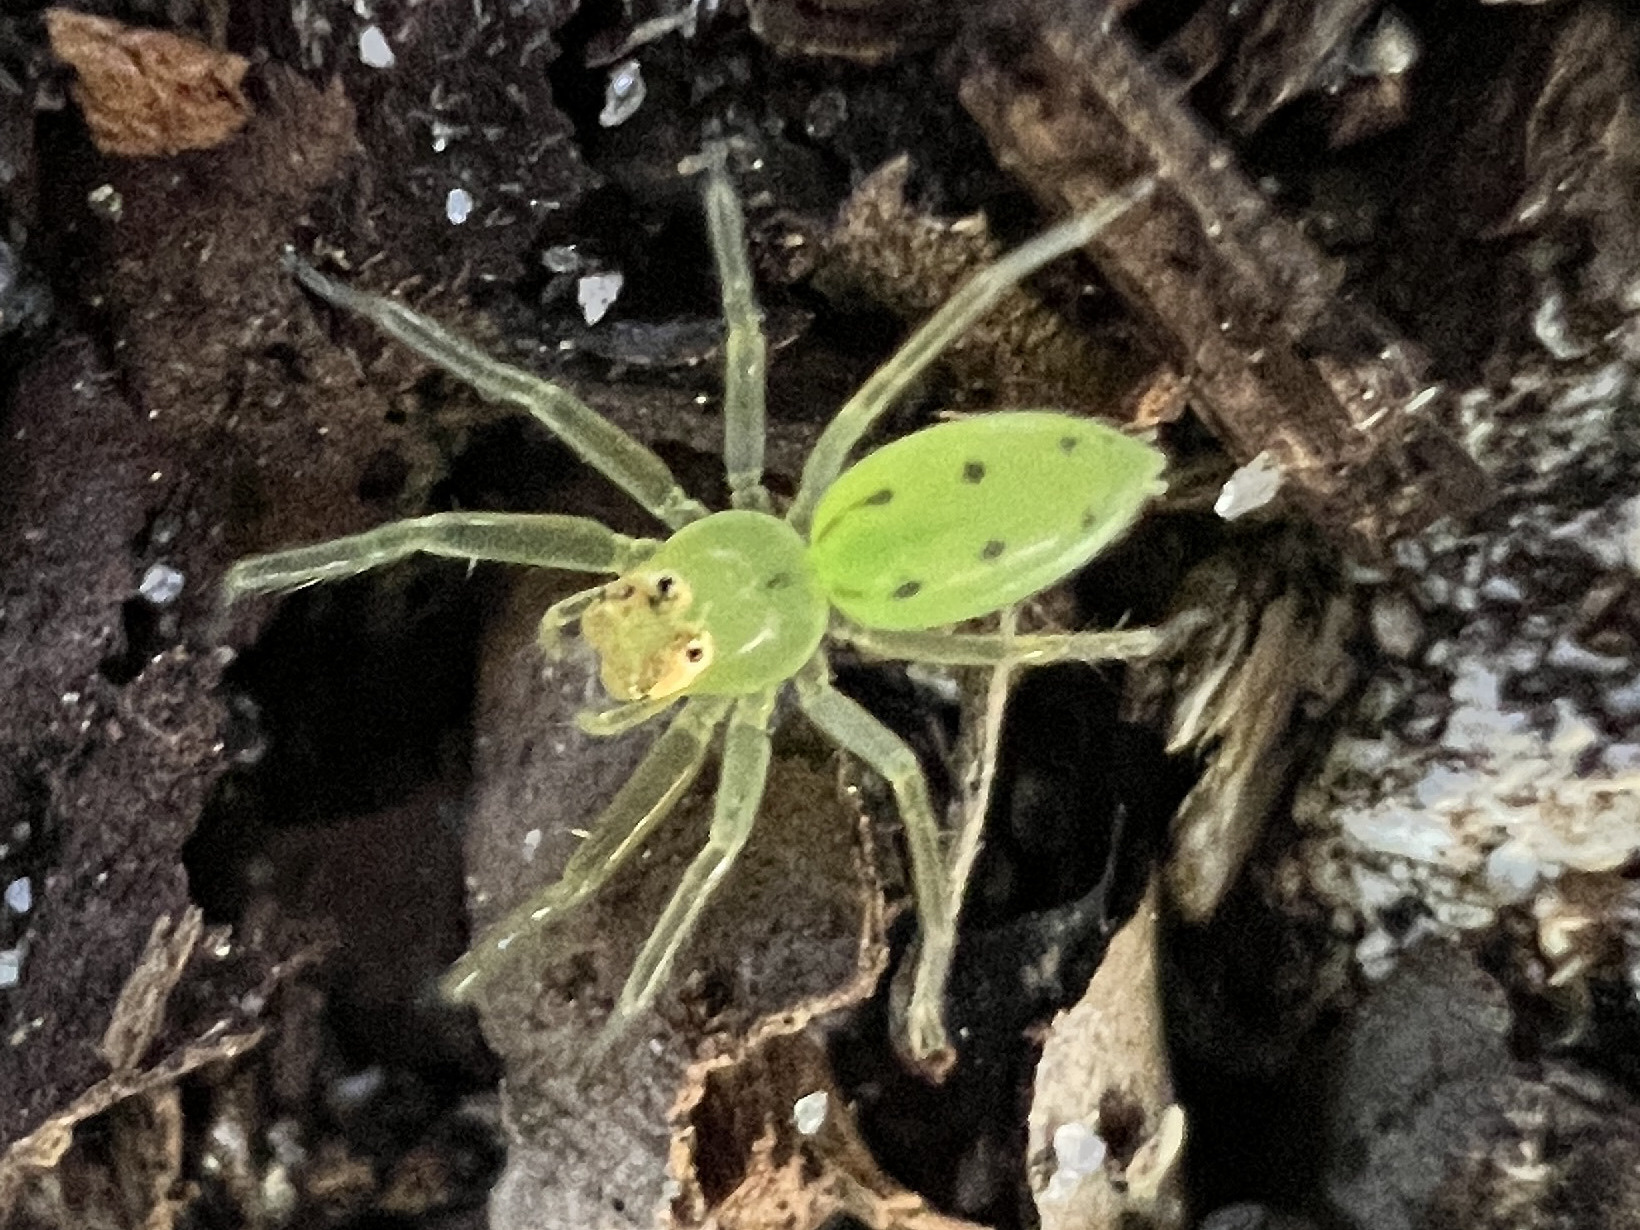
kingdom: Animalia
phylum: Arthropoda
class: Arachnida
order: Araneae
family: Salticidae
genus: Lyssomanes
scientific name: Lyssomanes viridis
